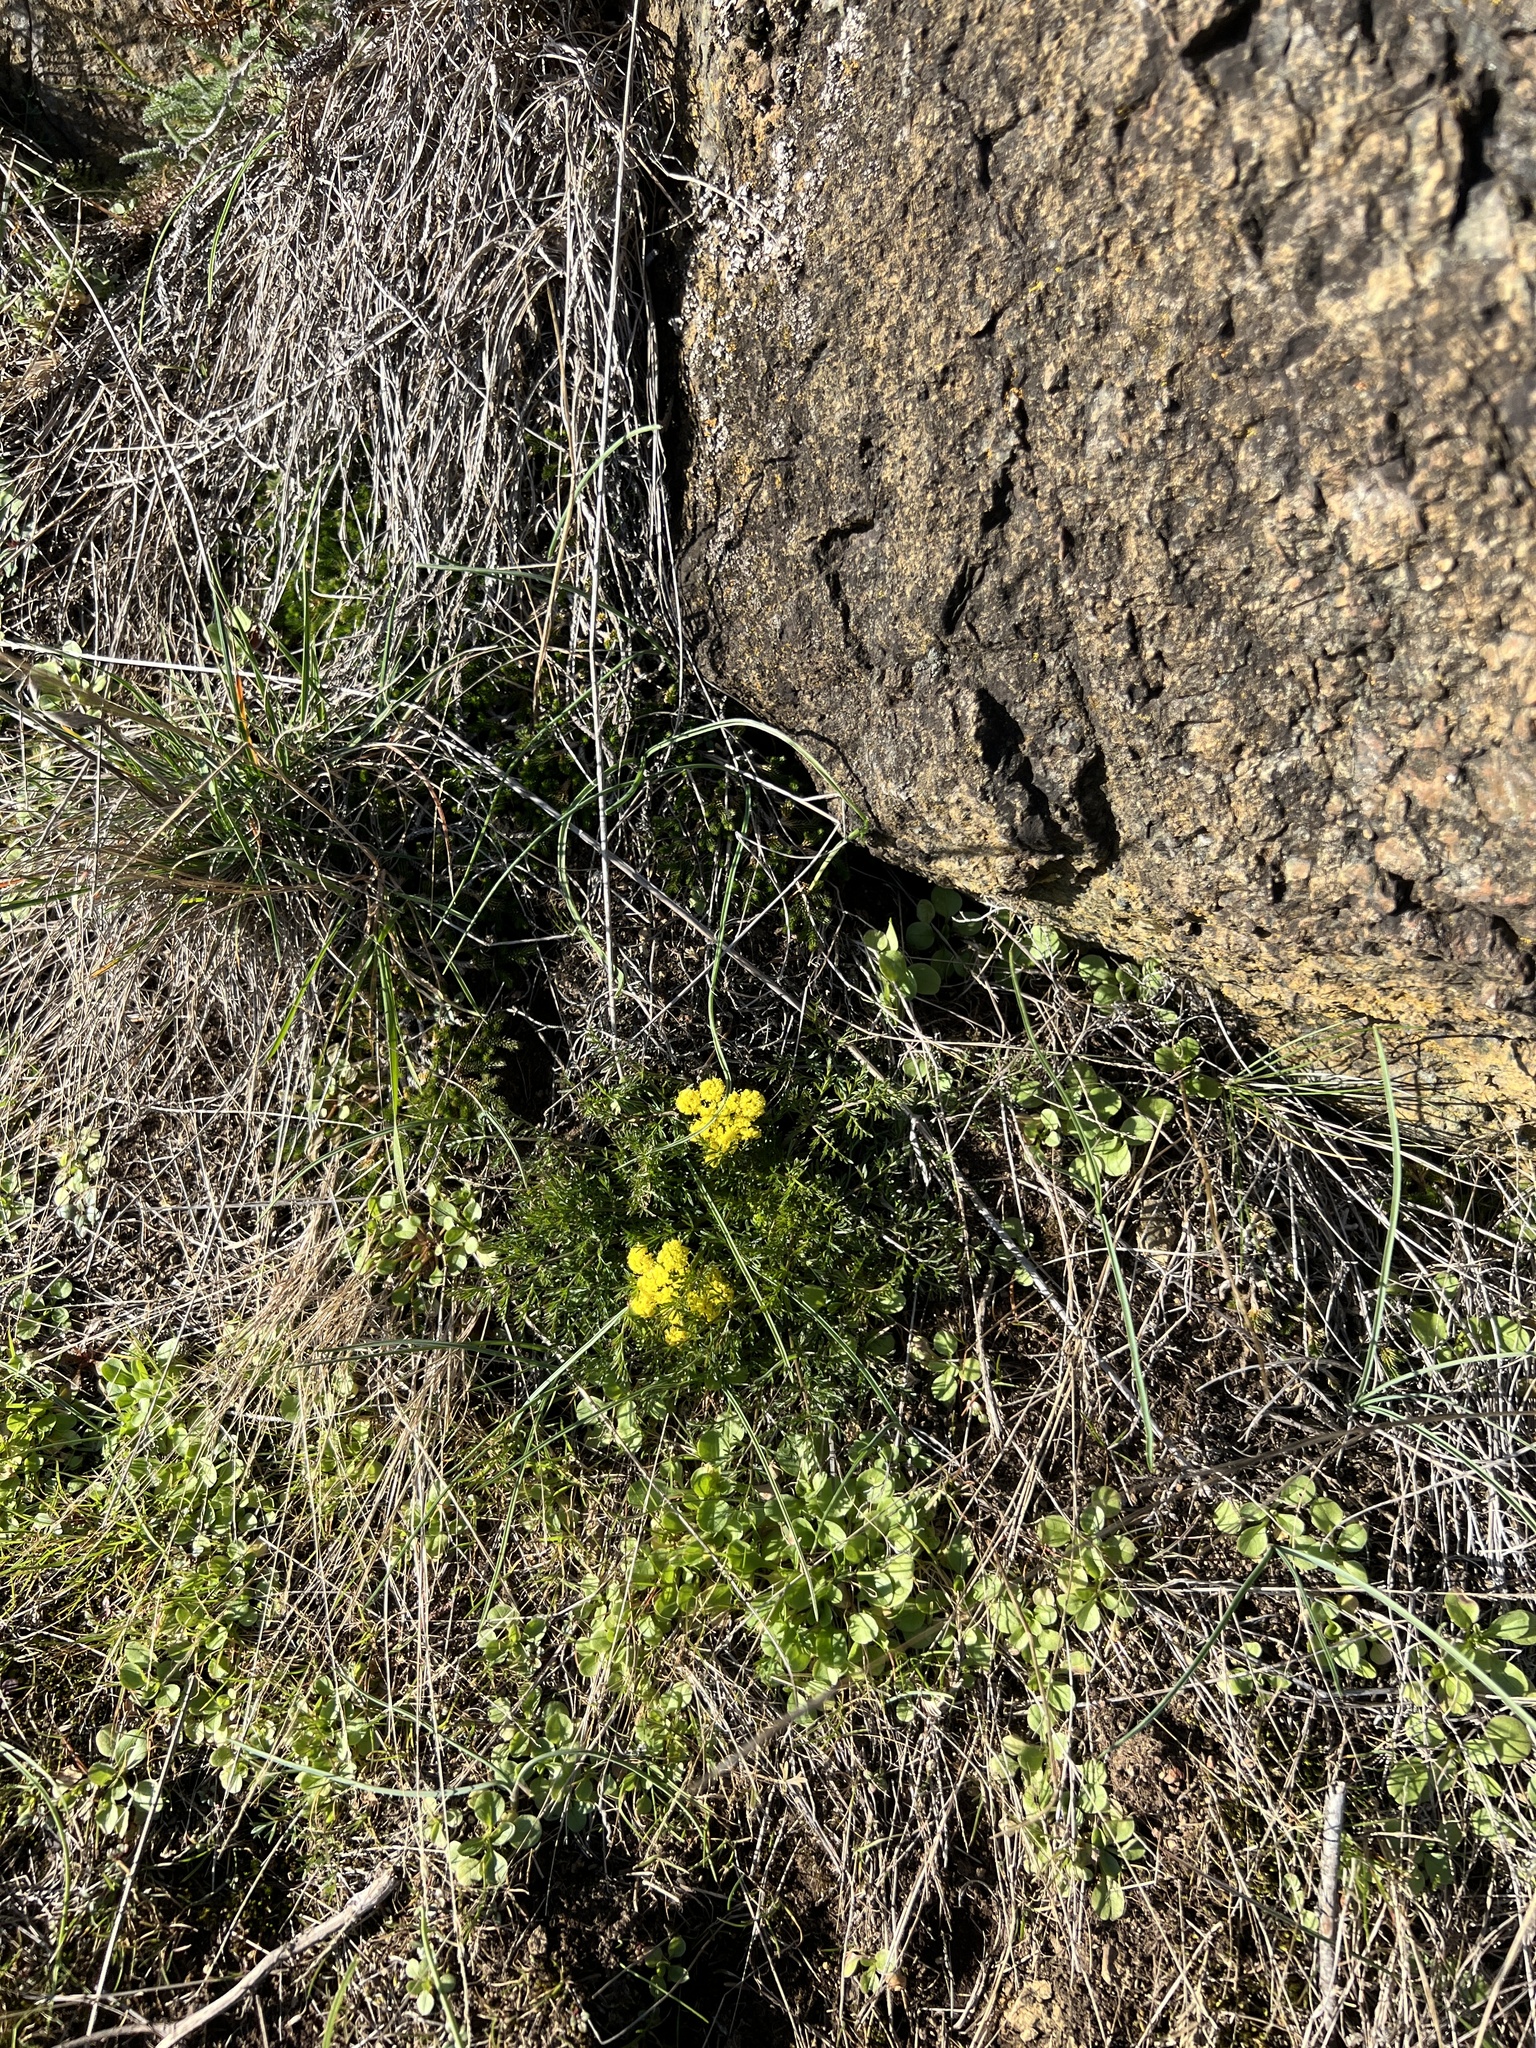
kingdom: Plantae
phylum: Tracheophyta
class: Magnoliopsida
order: Apiales
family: Apiaceae
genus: Lomatium
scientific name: Lomatium utriculatum
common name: Fine-leaf desert-parsley
